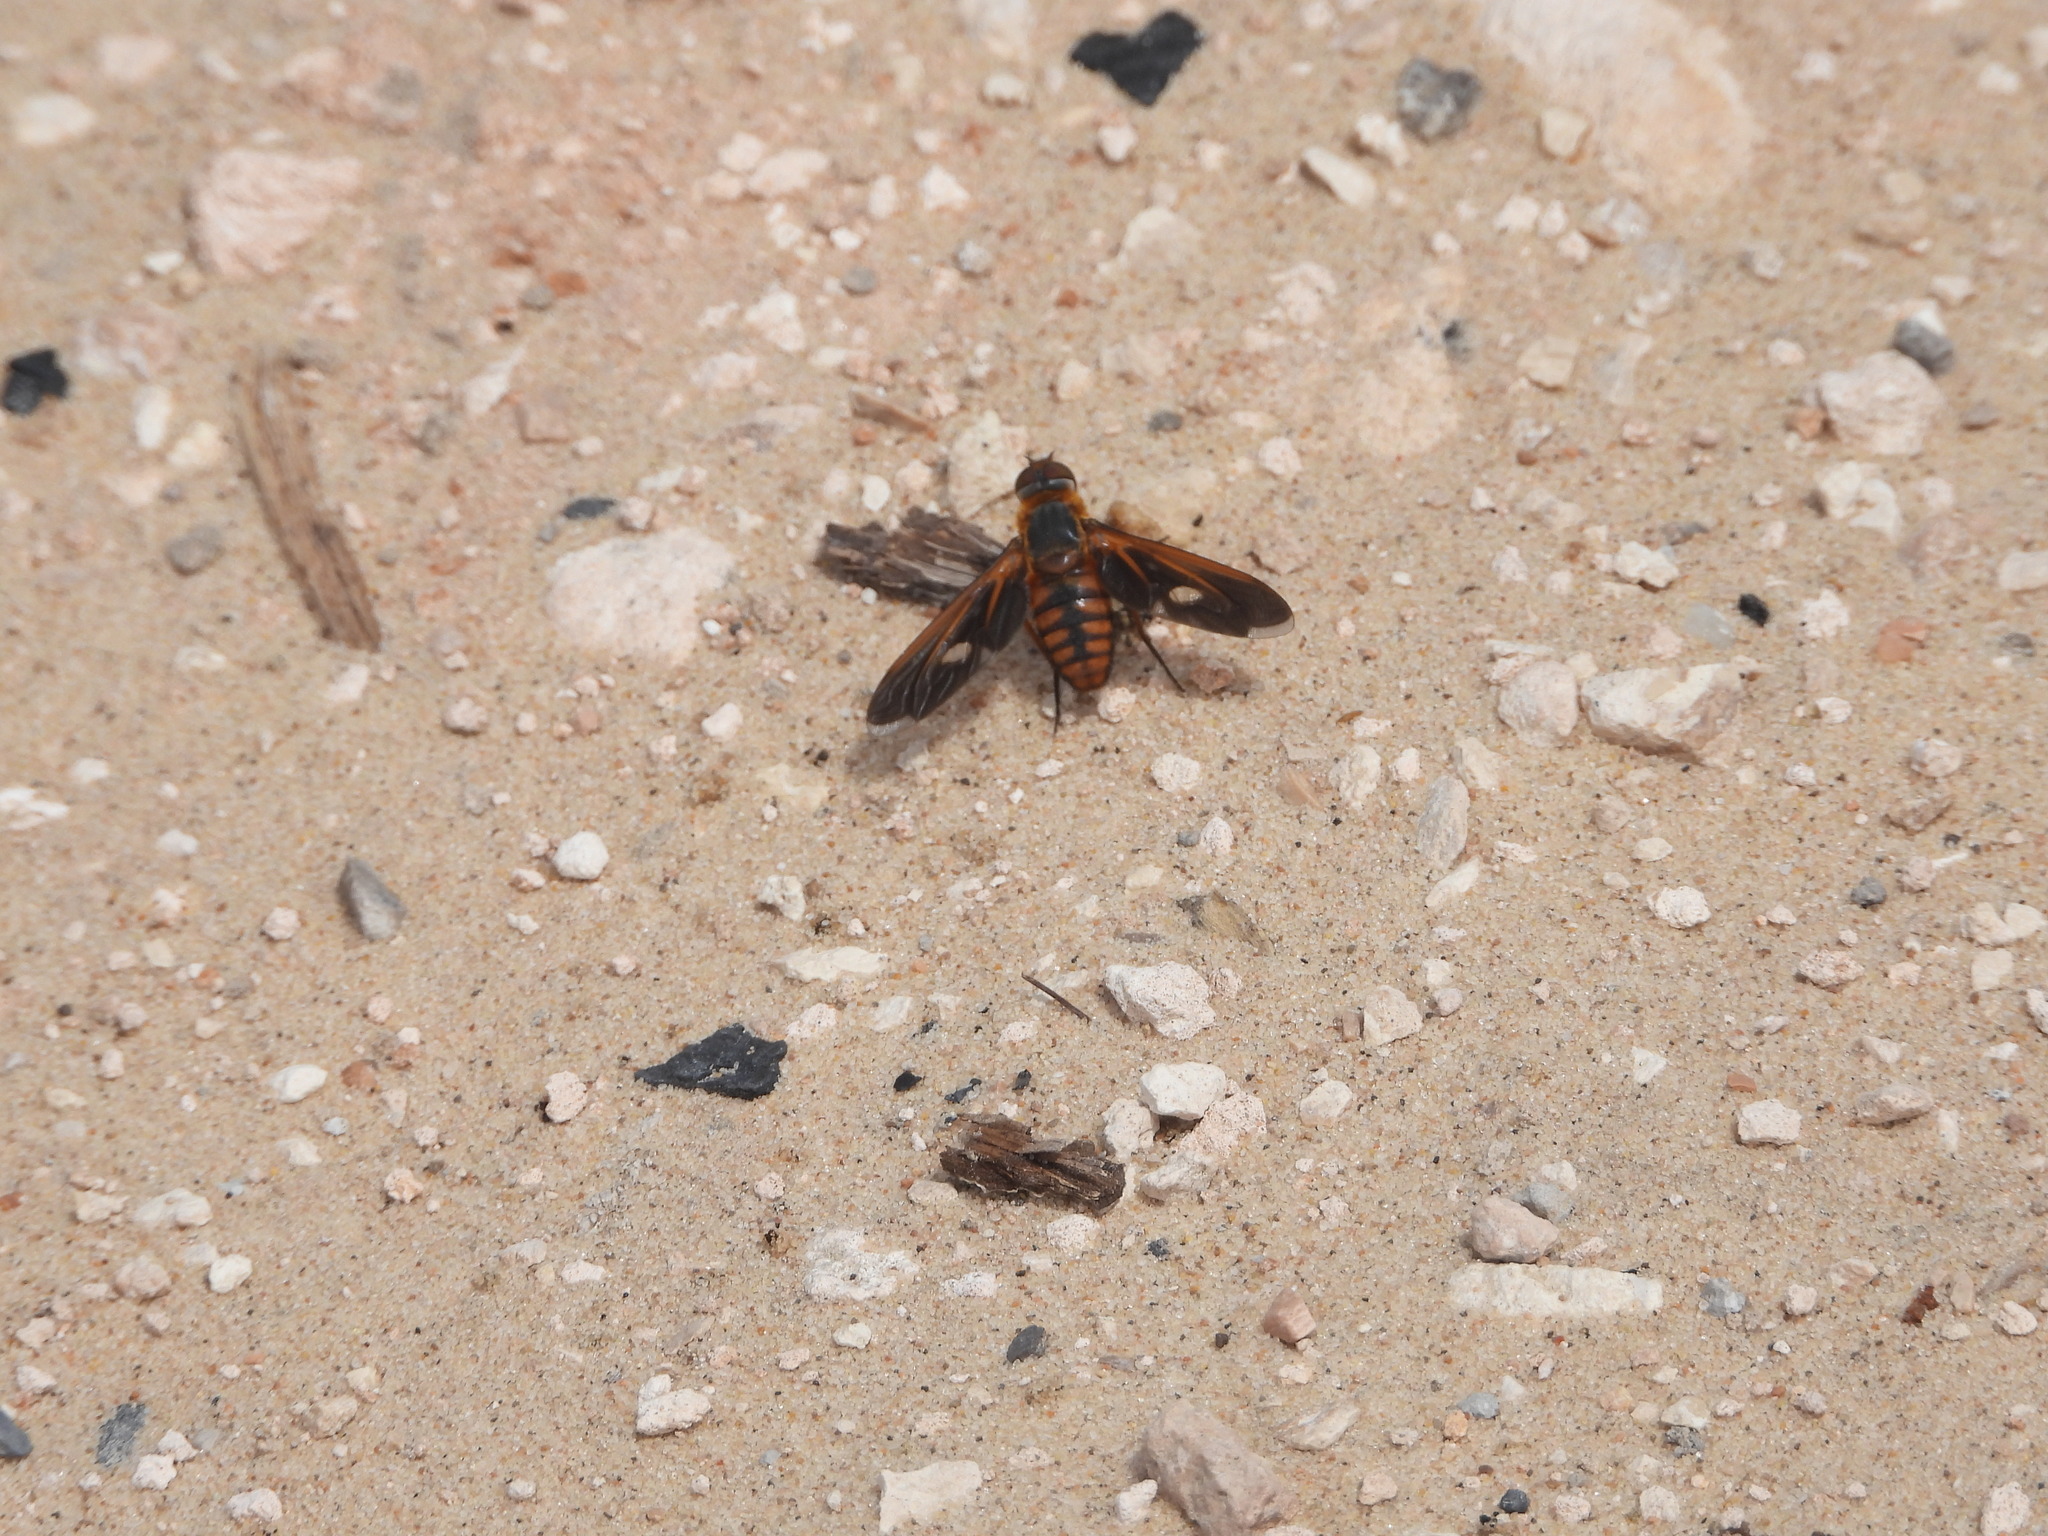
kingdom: Animalia
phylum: Arthropoda
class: Insecta
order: Diptera
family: Bombyliidae
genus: Poecilanthrax
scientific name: Poecilanthrax effrenus
